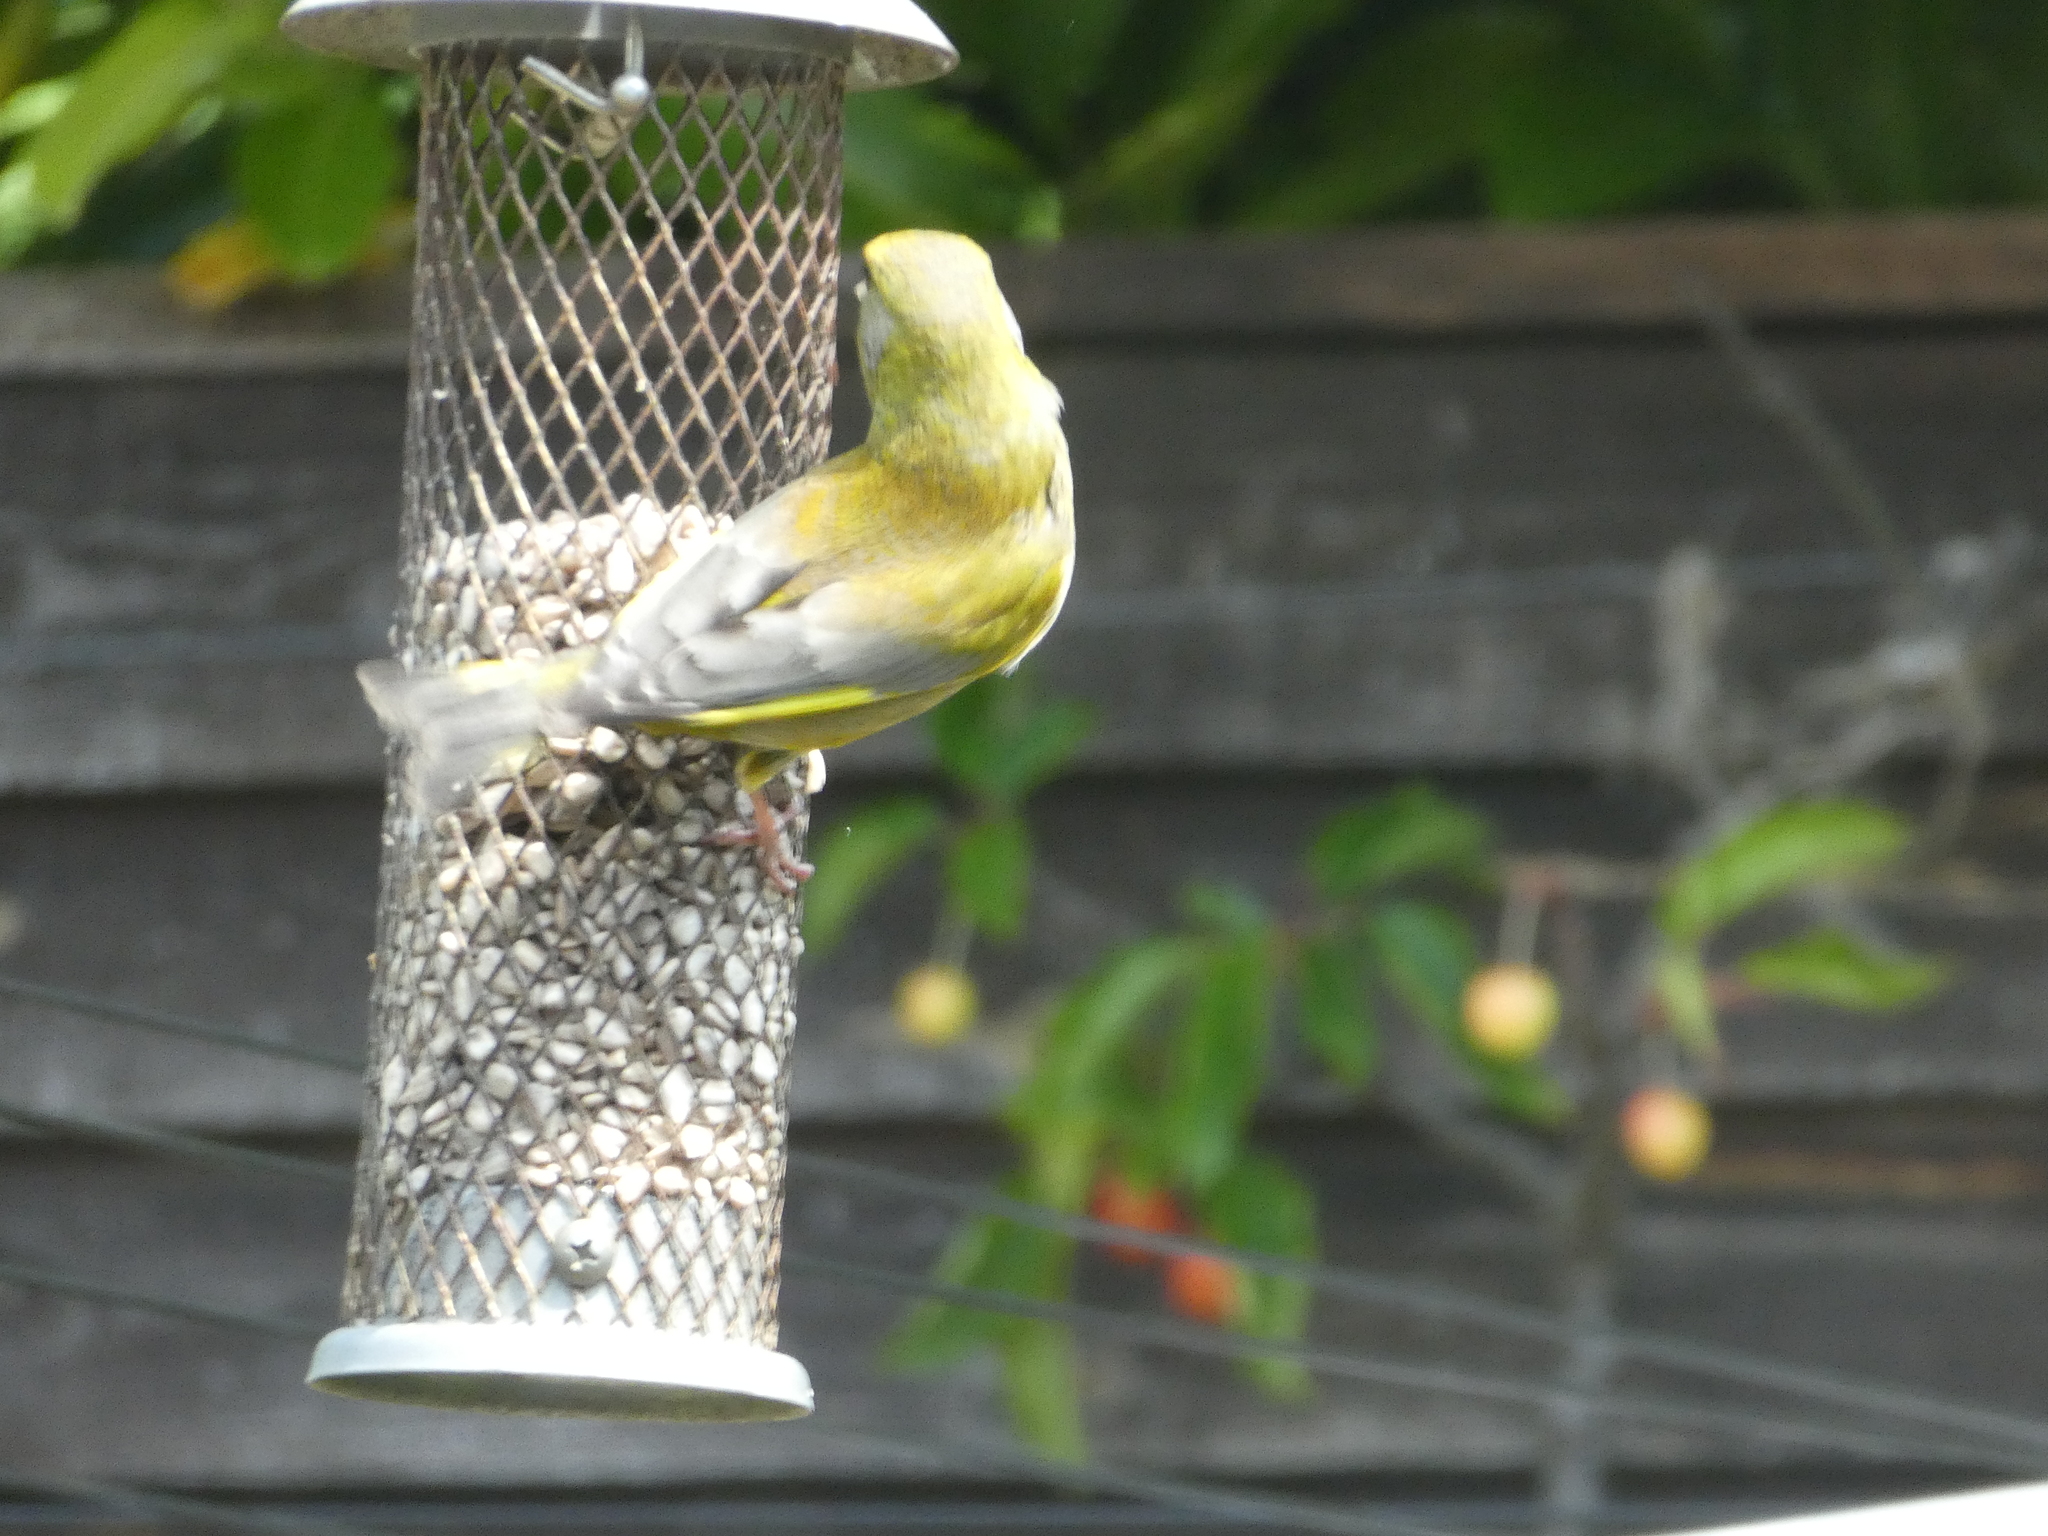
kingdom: Plantae
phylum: Tracheophyta
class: Liliopsida
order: Poales
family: Poaceae
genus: Chloris
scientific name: Chloris chloris
